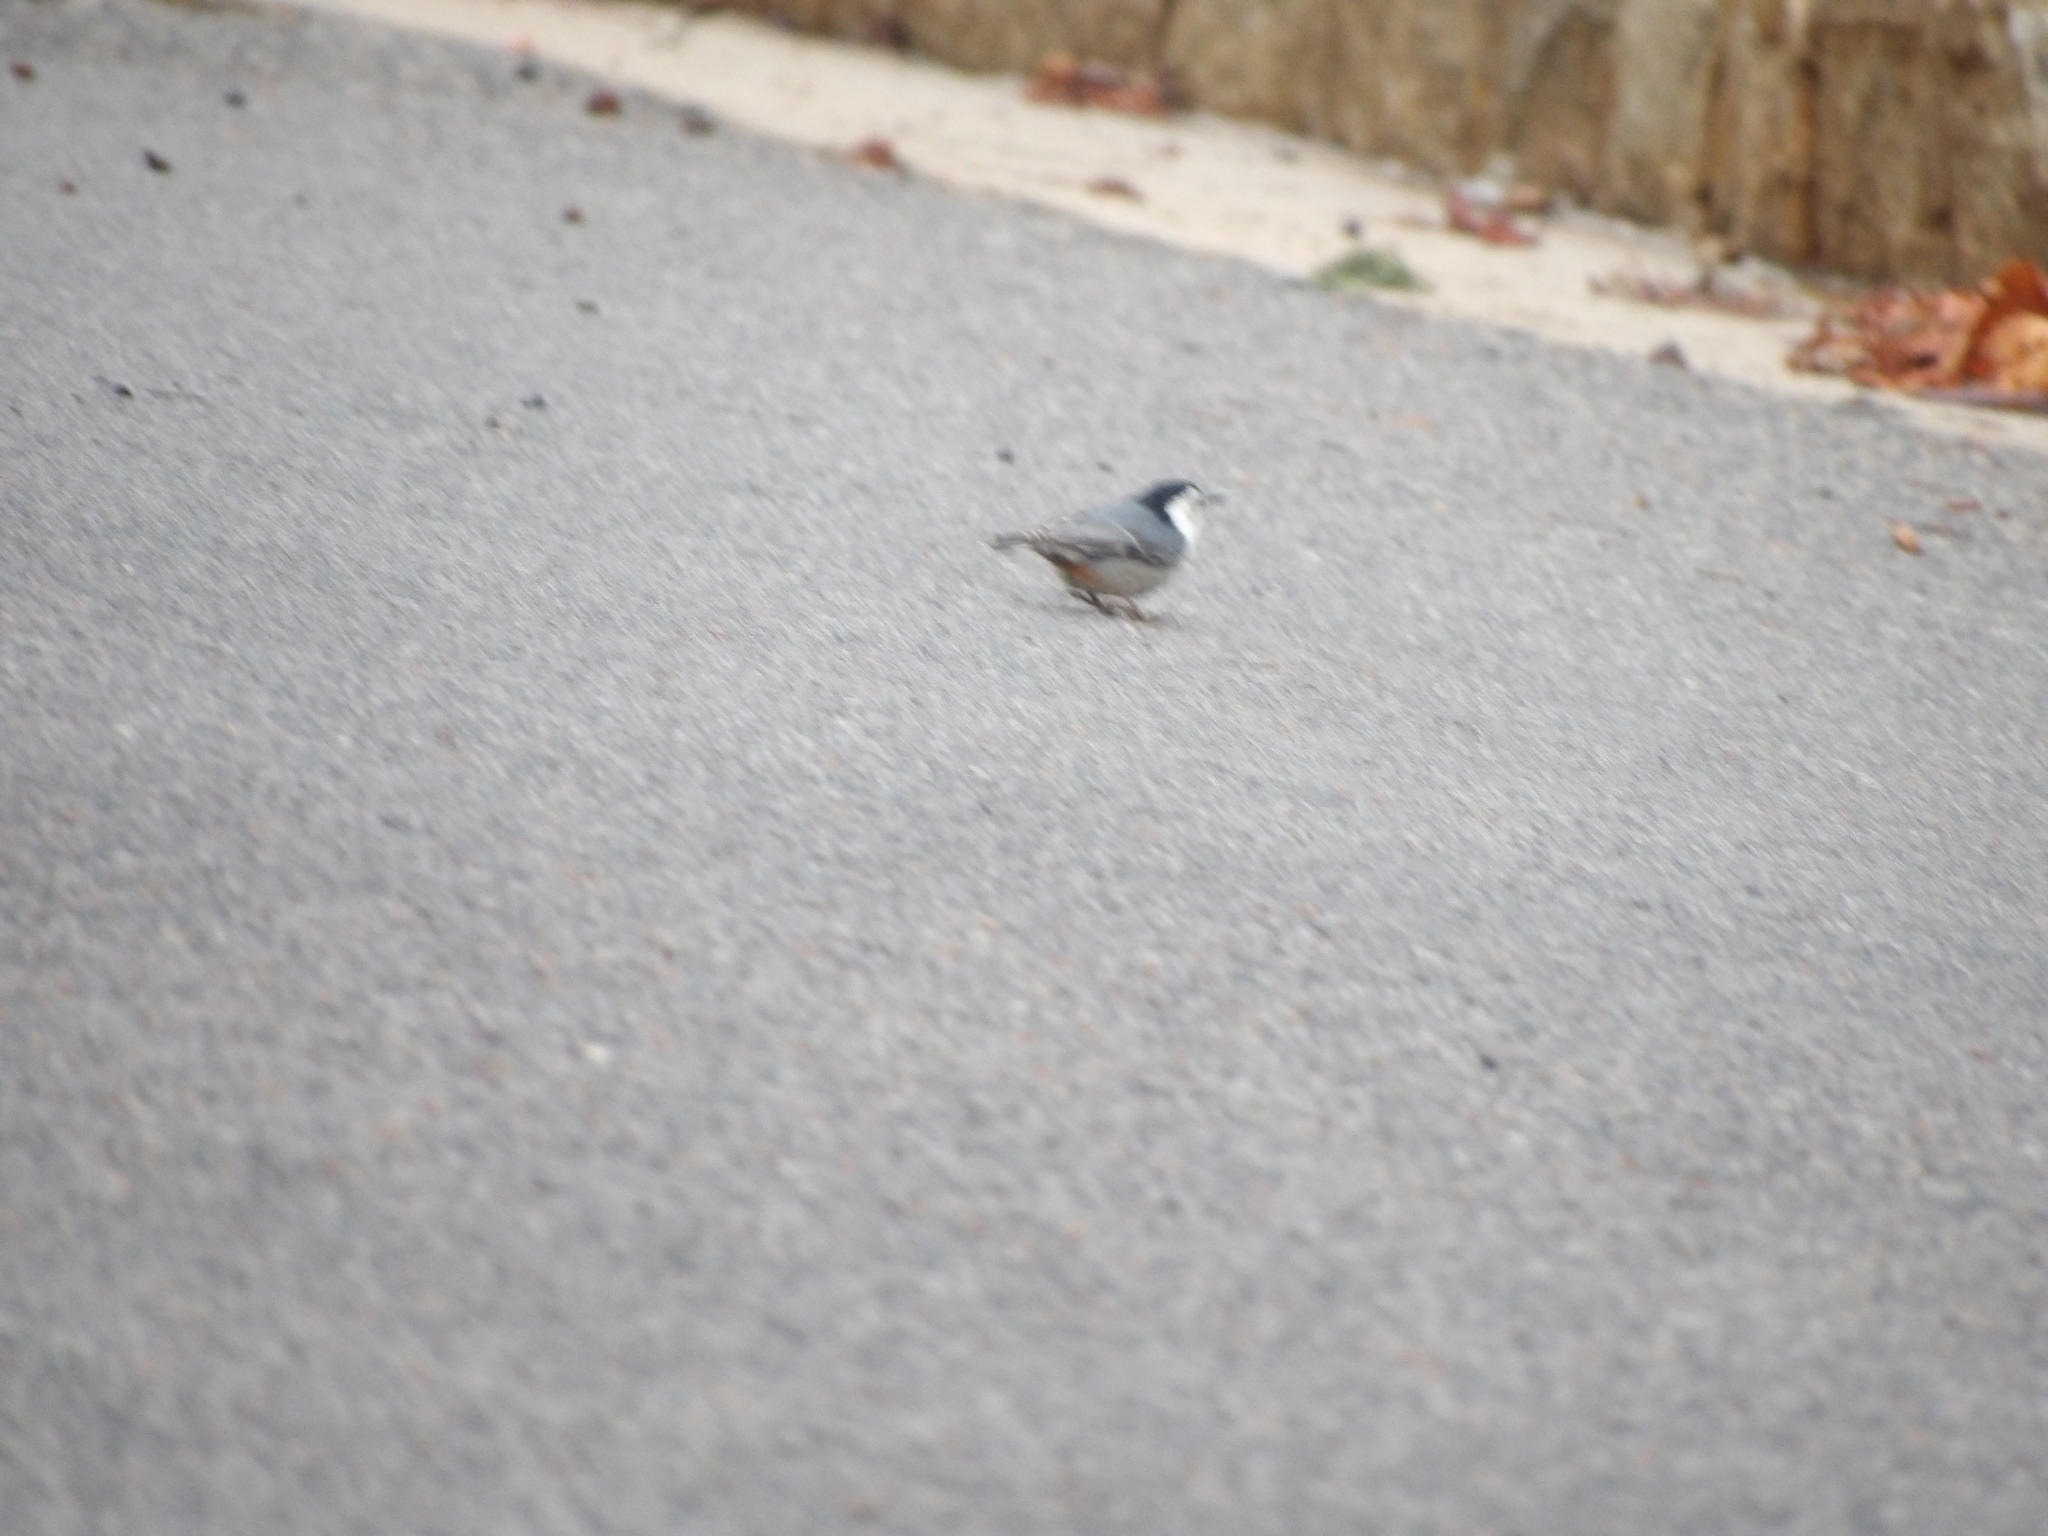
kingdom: Animalia
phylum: Chordata
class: Aves
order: Passeriformes
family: Sittidae
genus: Sitta
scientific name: Sitta carolinensis
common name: White-breasted nuthatch
